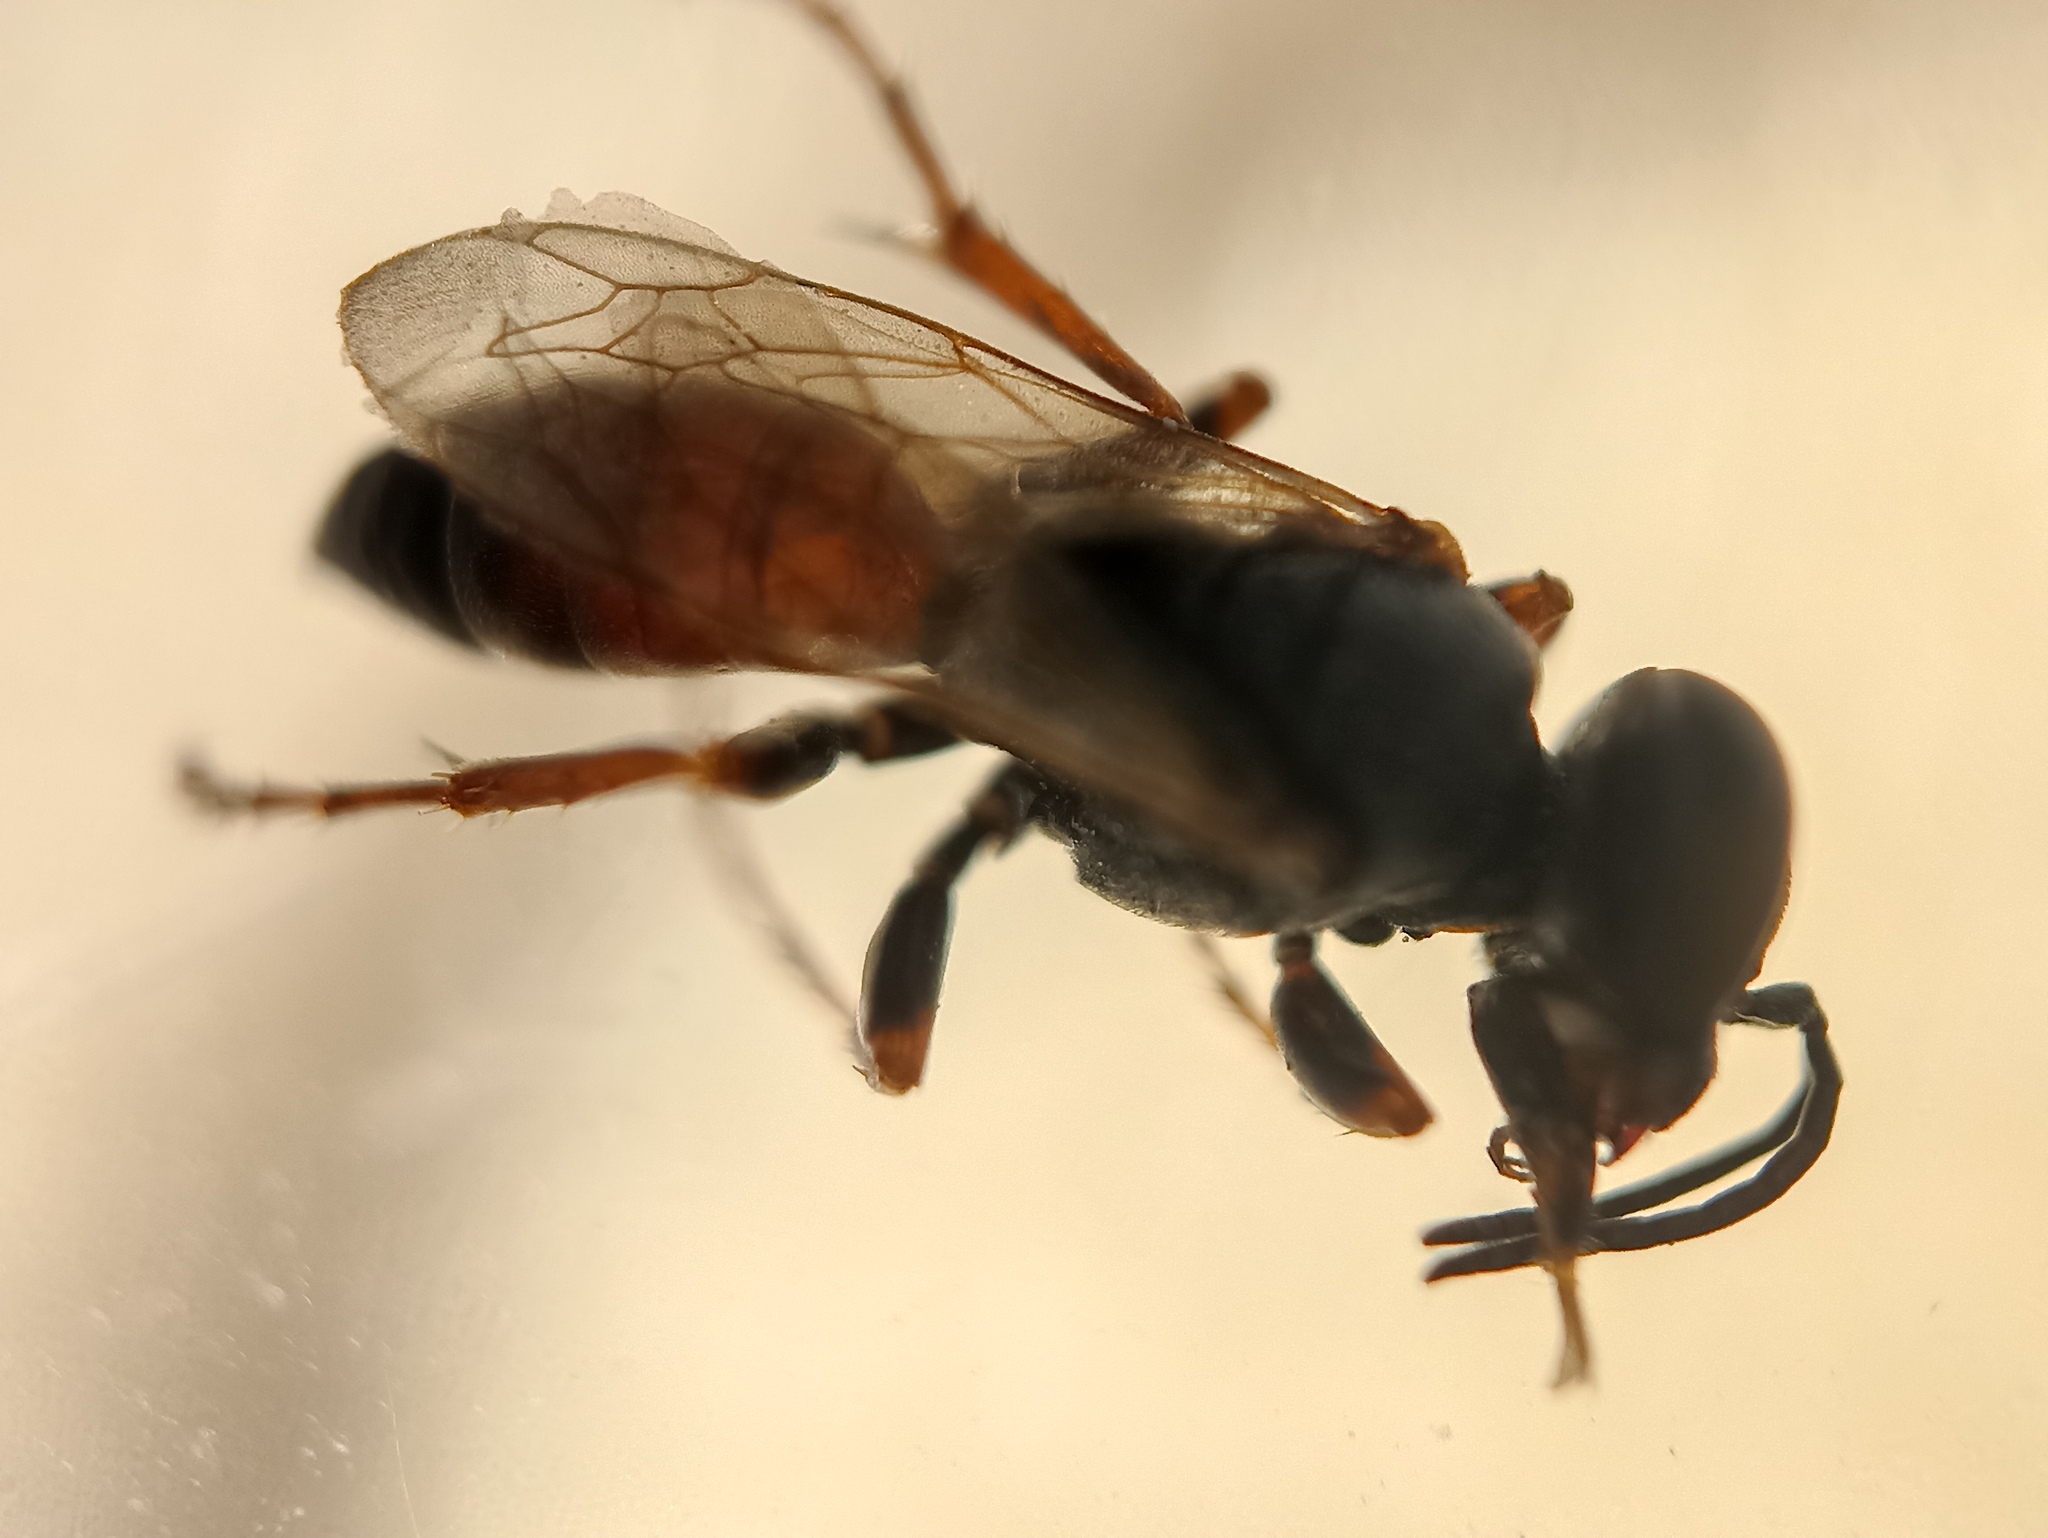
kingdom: Animalia
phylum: Arthropoda
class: Insecta
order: Hymenoptera
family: Crabronidae
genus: Tachysphex
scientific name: Tachysphex pseudopanzeri
